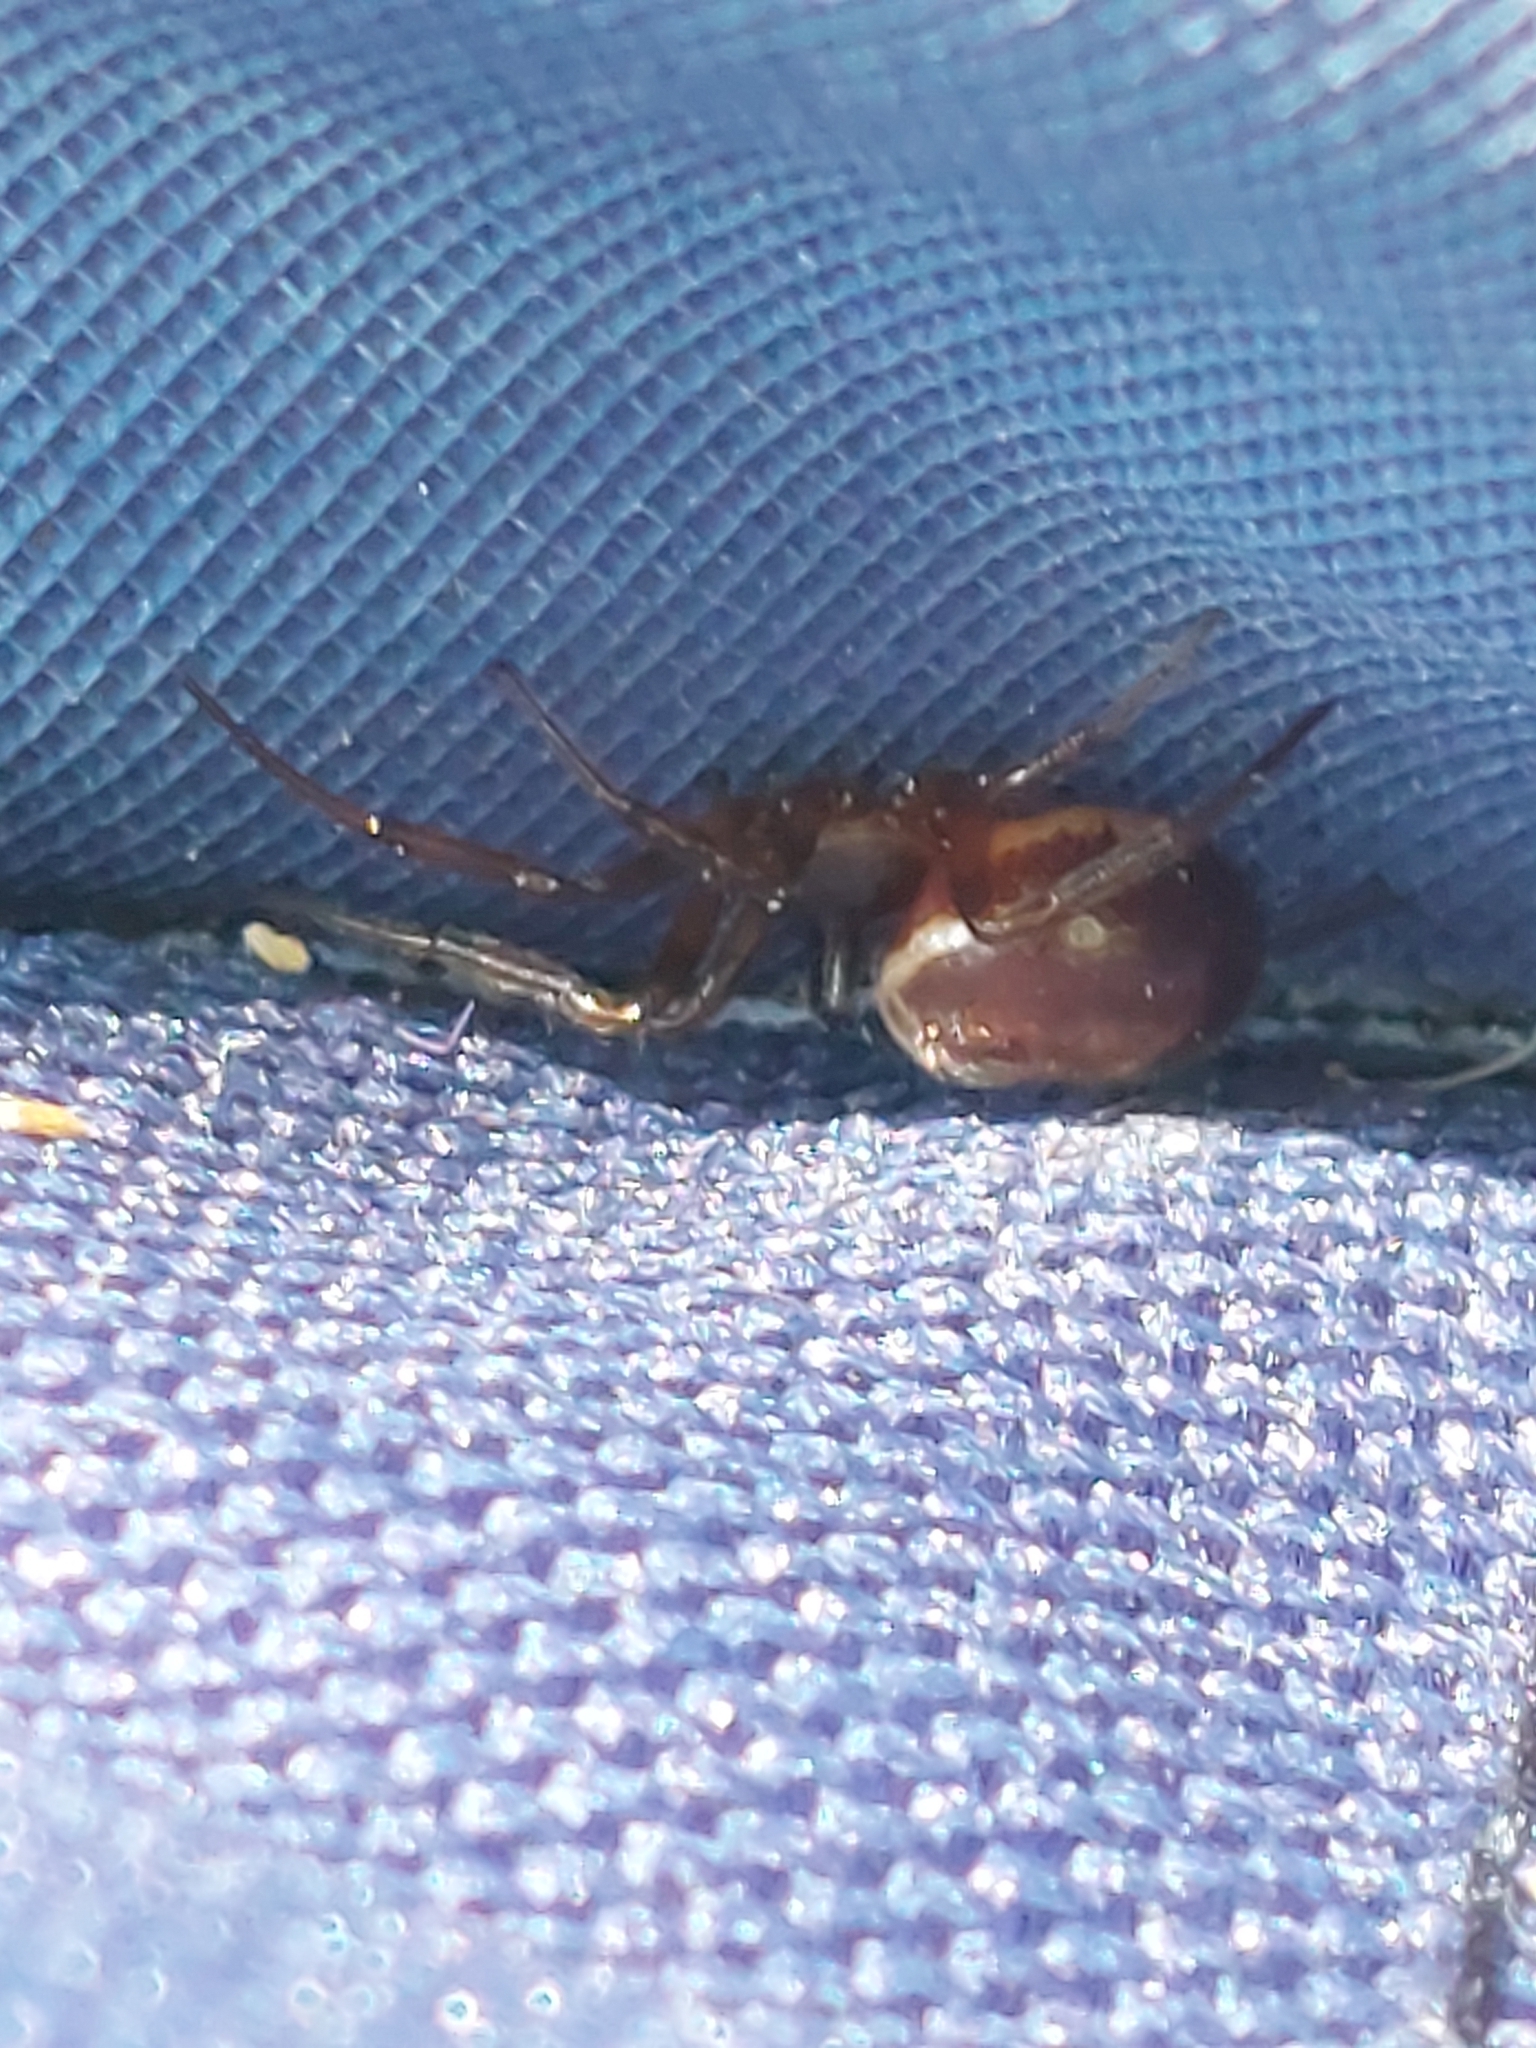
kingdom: Animalia
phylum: Arthropoda
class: Arachnida
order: Araneae
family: Theridiidae
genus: Steatoda
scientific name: Steatoda bipunctata
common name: False widow
